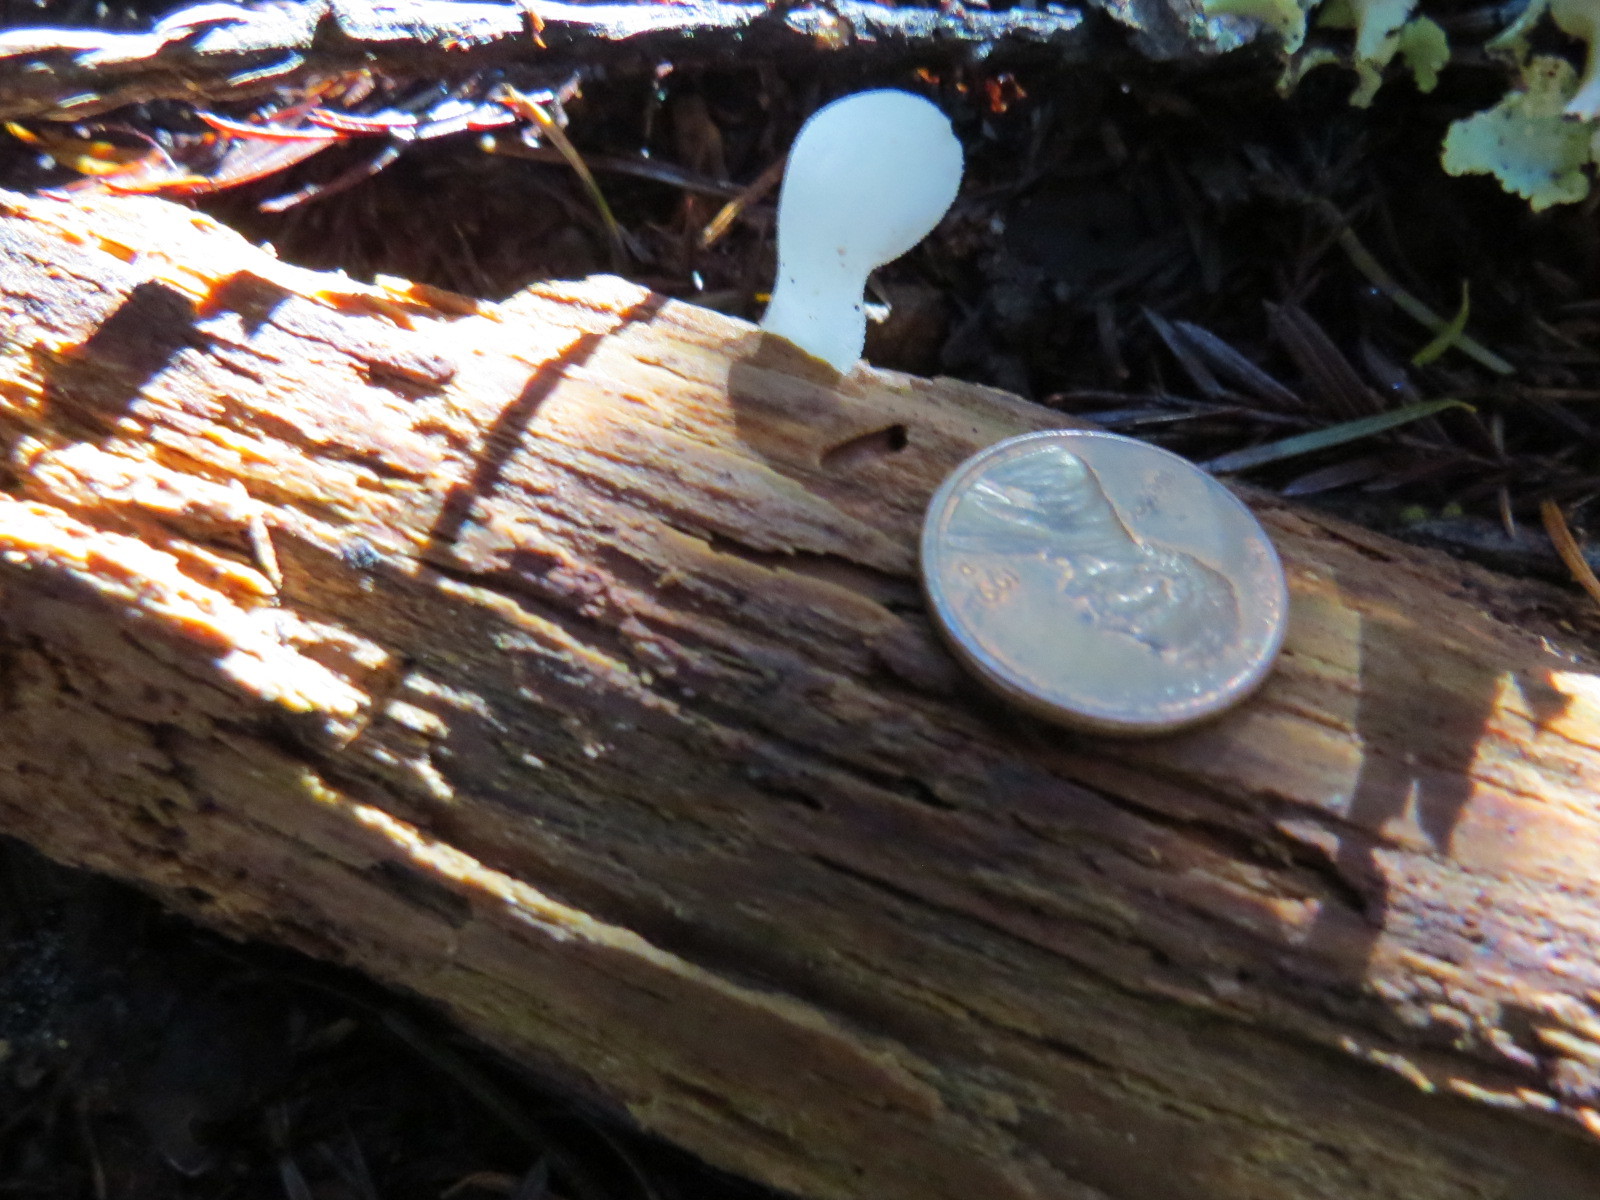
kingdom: Fungi
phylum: Basidiomycota
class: Agaricomycetes
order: Auriculariales
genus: Pseudohydnum
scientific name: Pseudohydnum gelatinosum
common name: Jelly tongue
